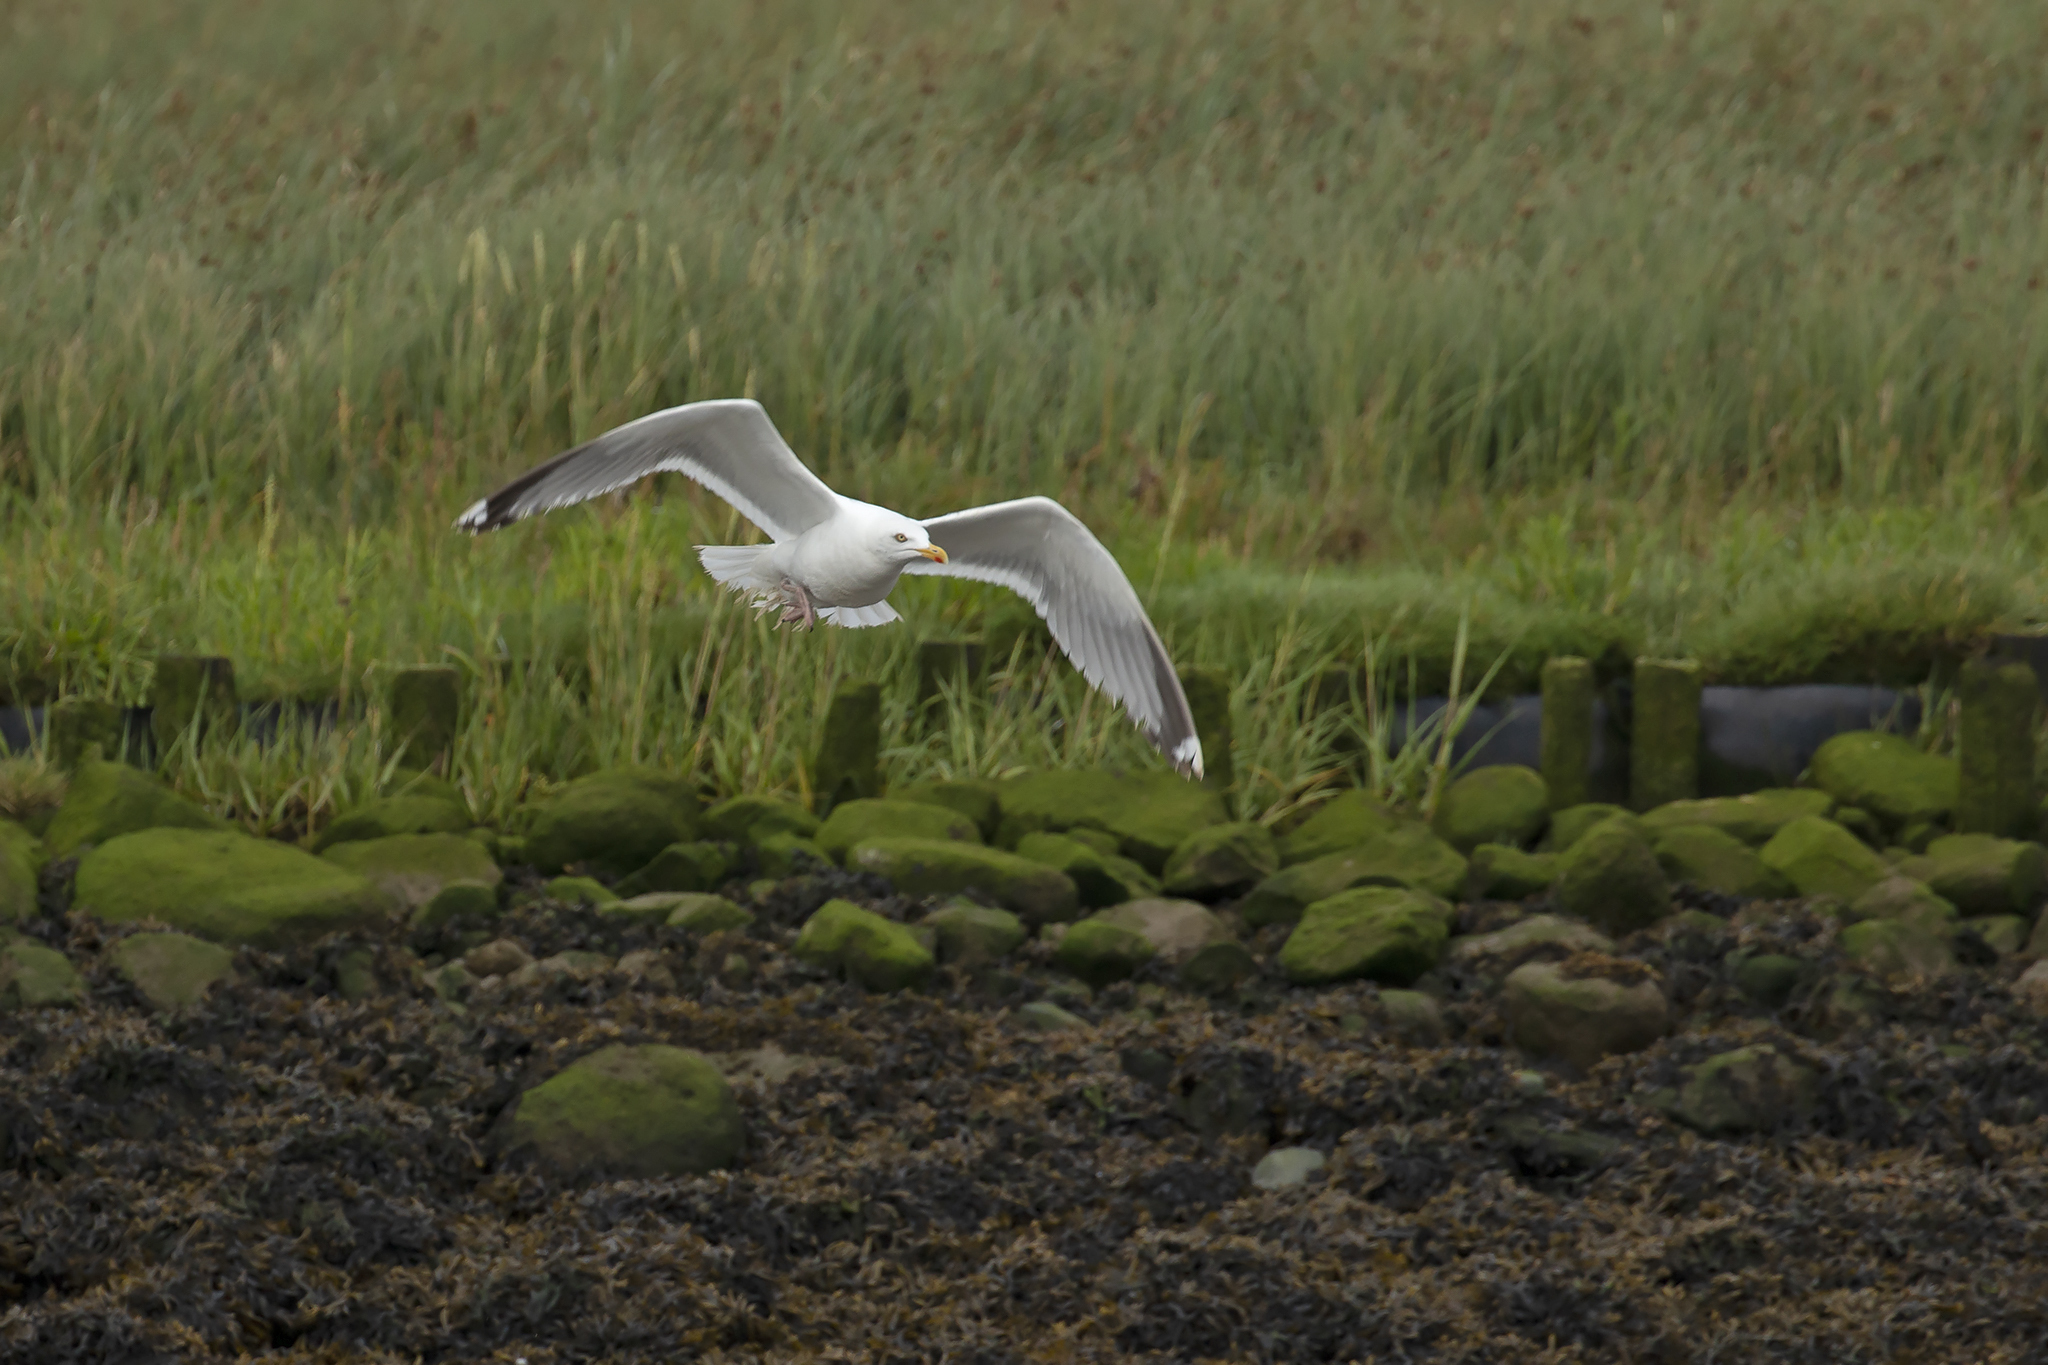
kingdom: Animalia
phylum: Chordata
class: Aves
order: Charadriiformes
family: Laridae
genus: Larus
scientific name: Larus argentatus
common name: Herring gull
